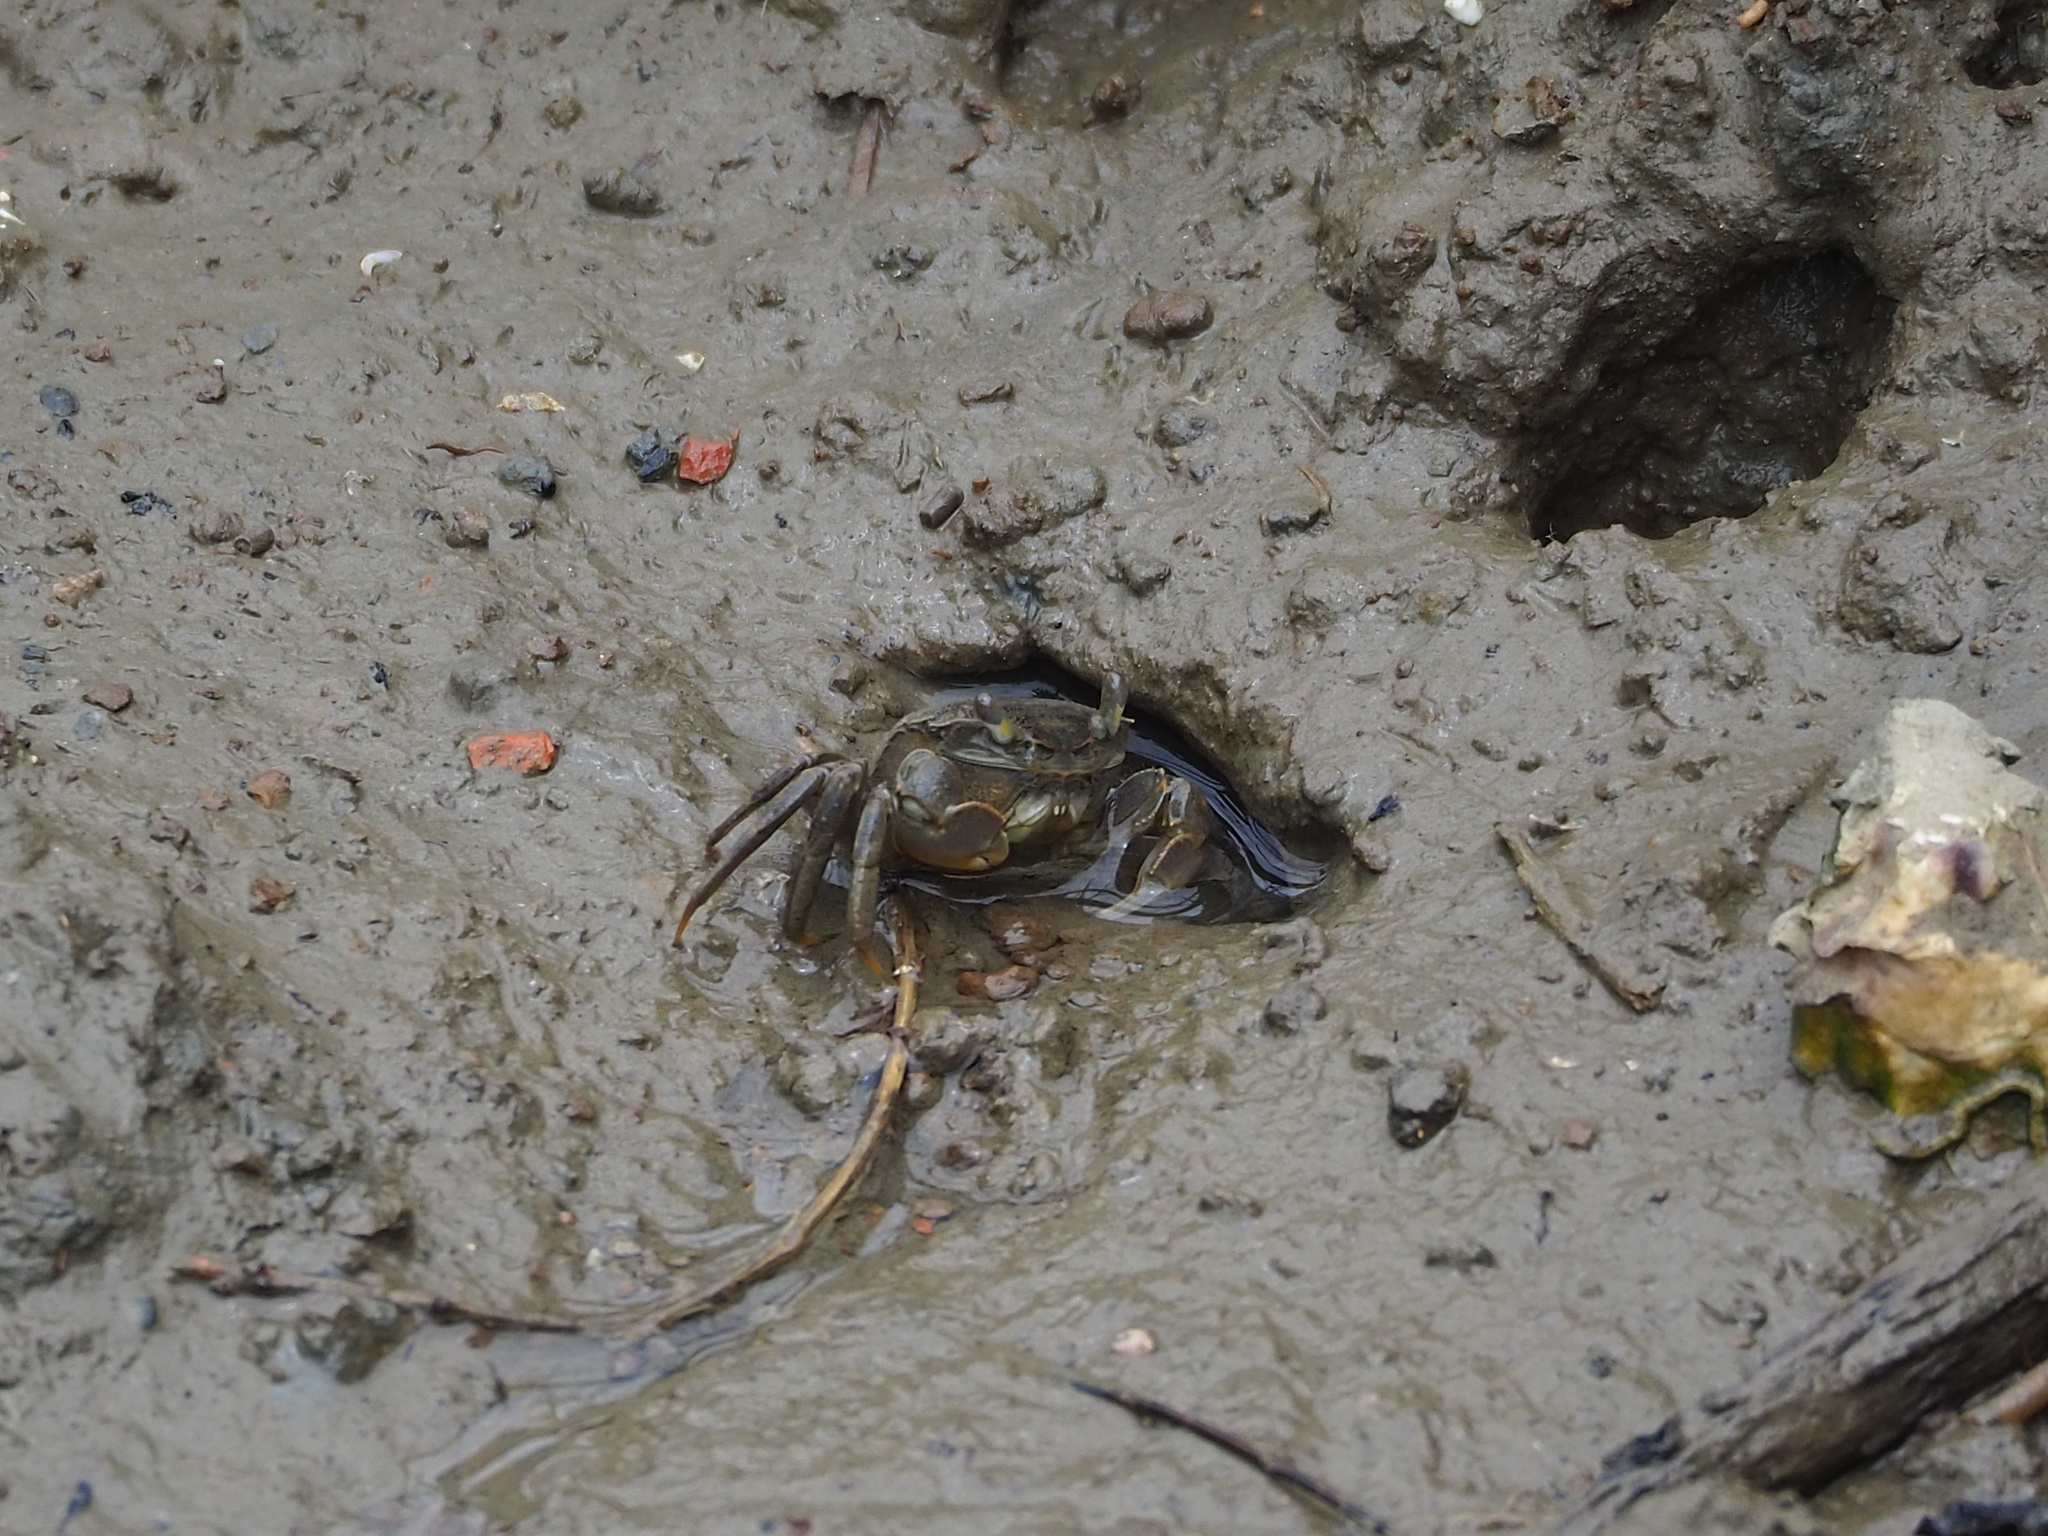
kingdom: Animalia
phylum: Arthropoda
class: Malacostraca
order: Decapoda
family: Varunidae
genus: Helice
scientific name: Helice formosensis
